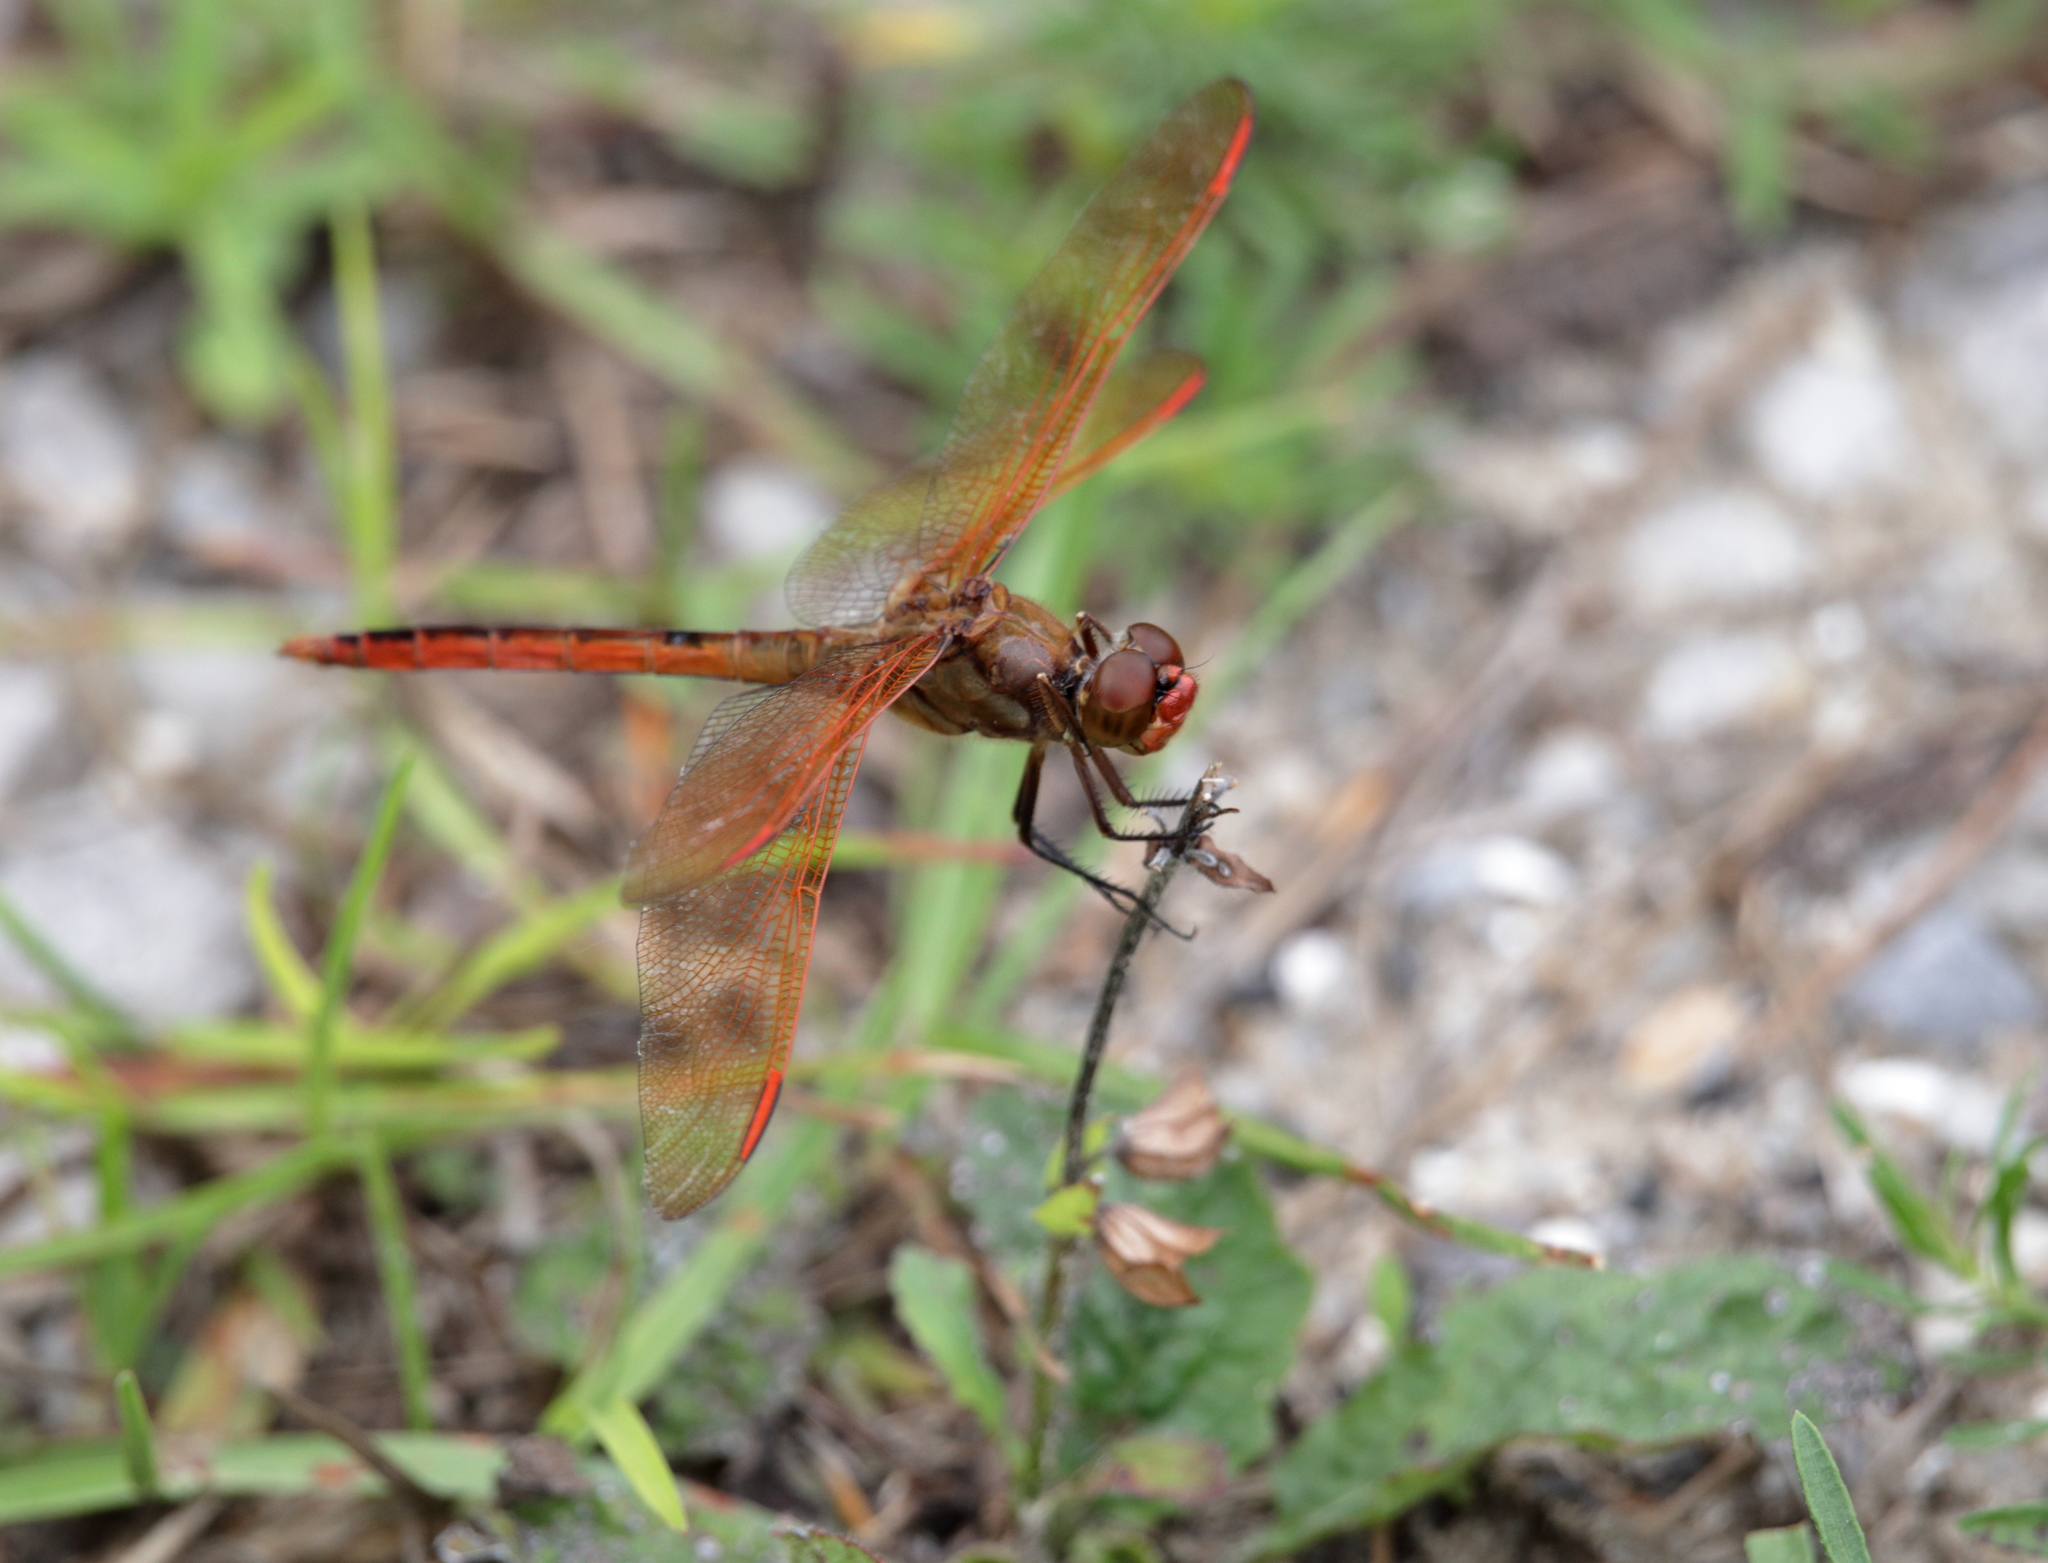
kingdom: Animalia
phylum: Arthropoda
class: Insecta
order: Odonata
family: Libellulidae
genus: Libellula
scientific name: Libellula auripennis
